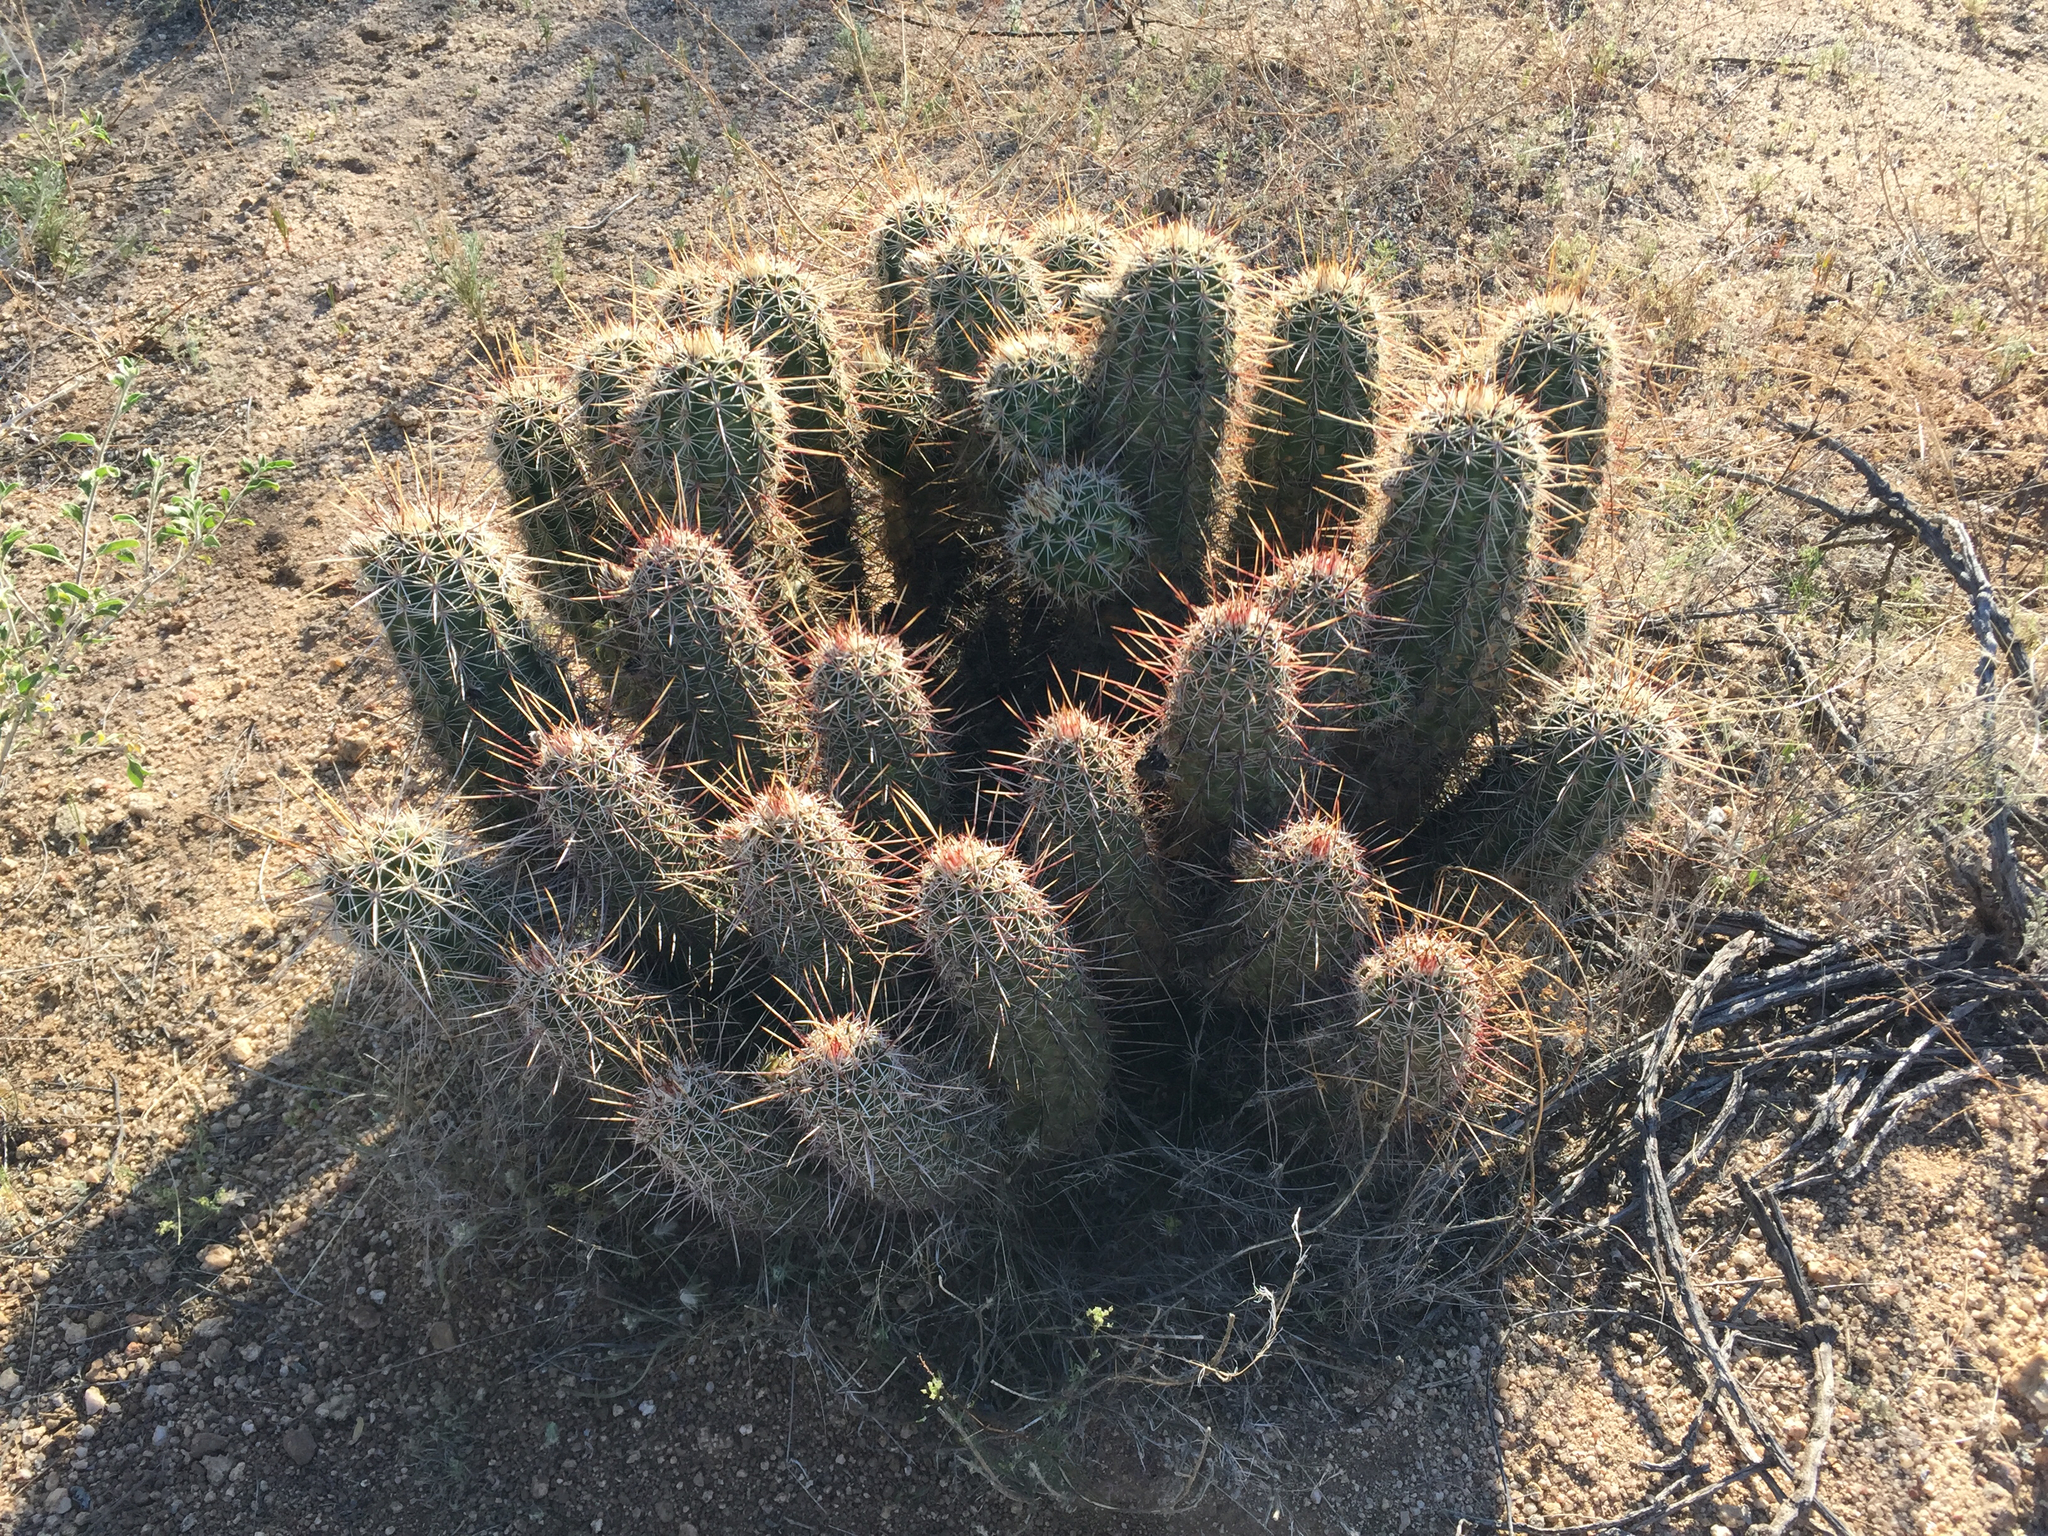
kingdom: Plantae
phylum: Tracheophyta
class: Magnoliopsida
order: Caryophyllales
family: Cactaceae
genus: Echinocereus
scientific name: Echinocereus fasciculatus
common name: Bundle hedgehog
